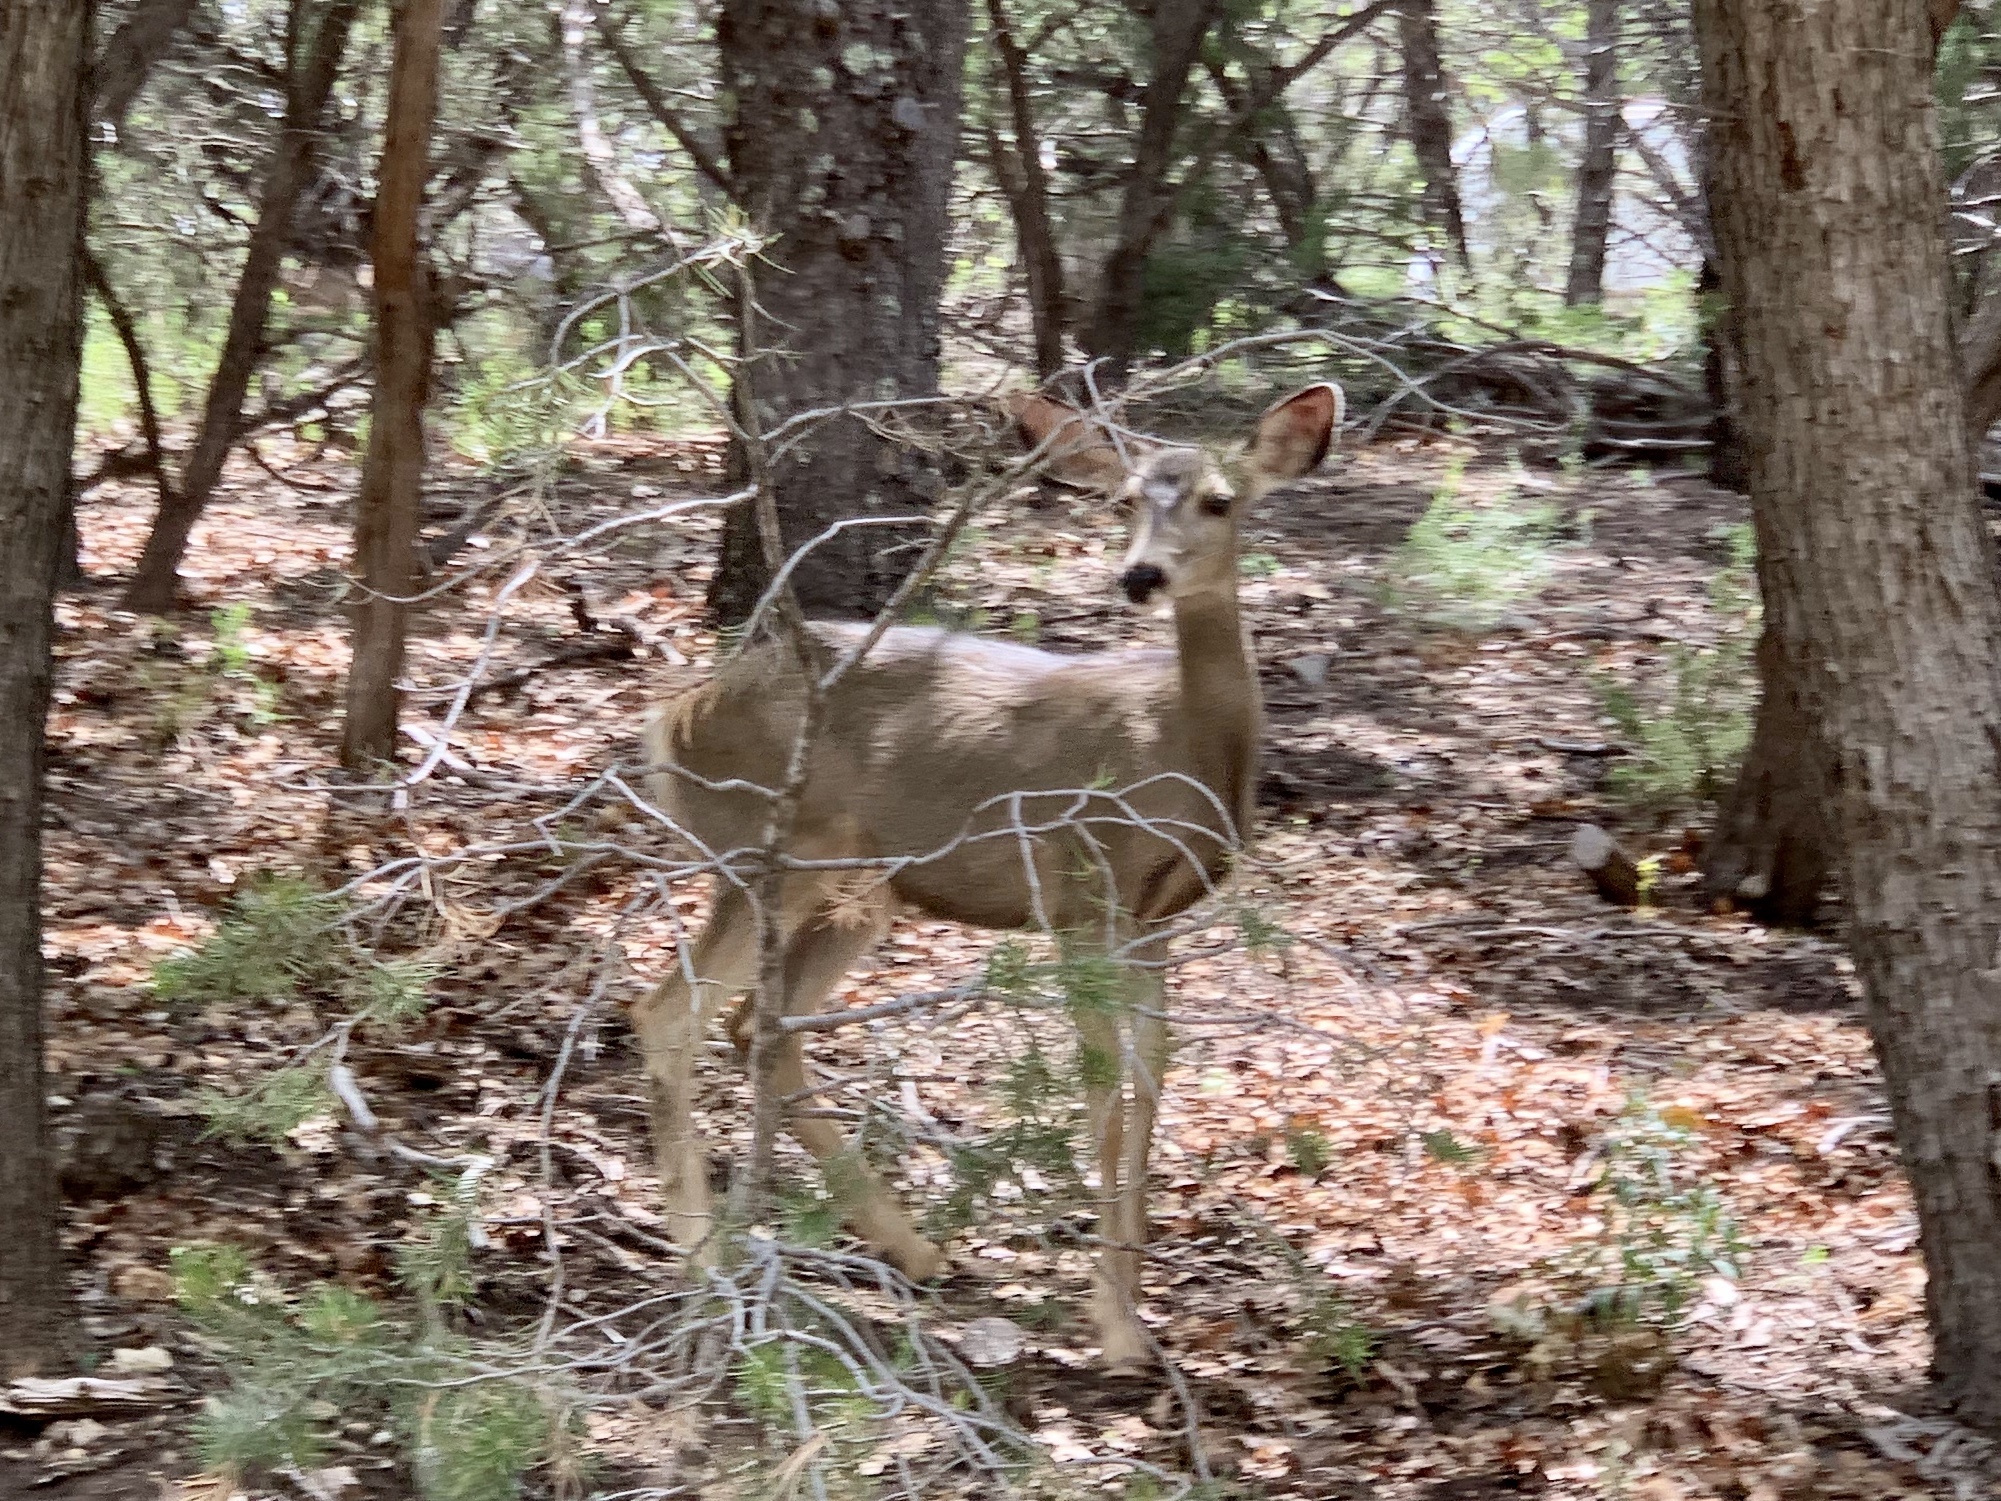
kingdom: Animalia
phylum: Chordata
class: Mammalia
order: Artiodactyla
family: Cervidae
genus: Odocoileus
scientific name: Odocoileus hemionus
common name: Mule deer
